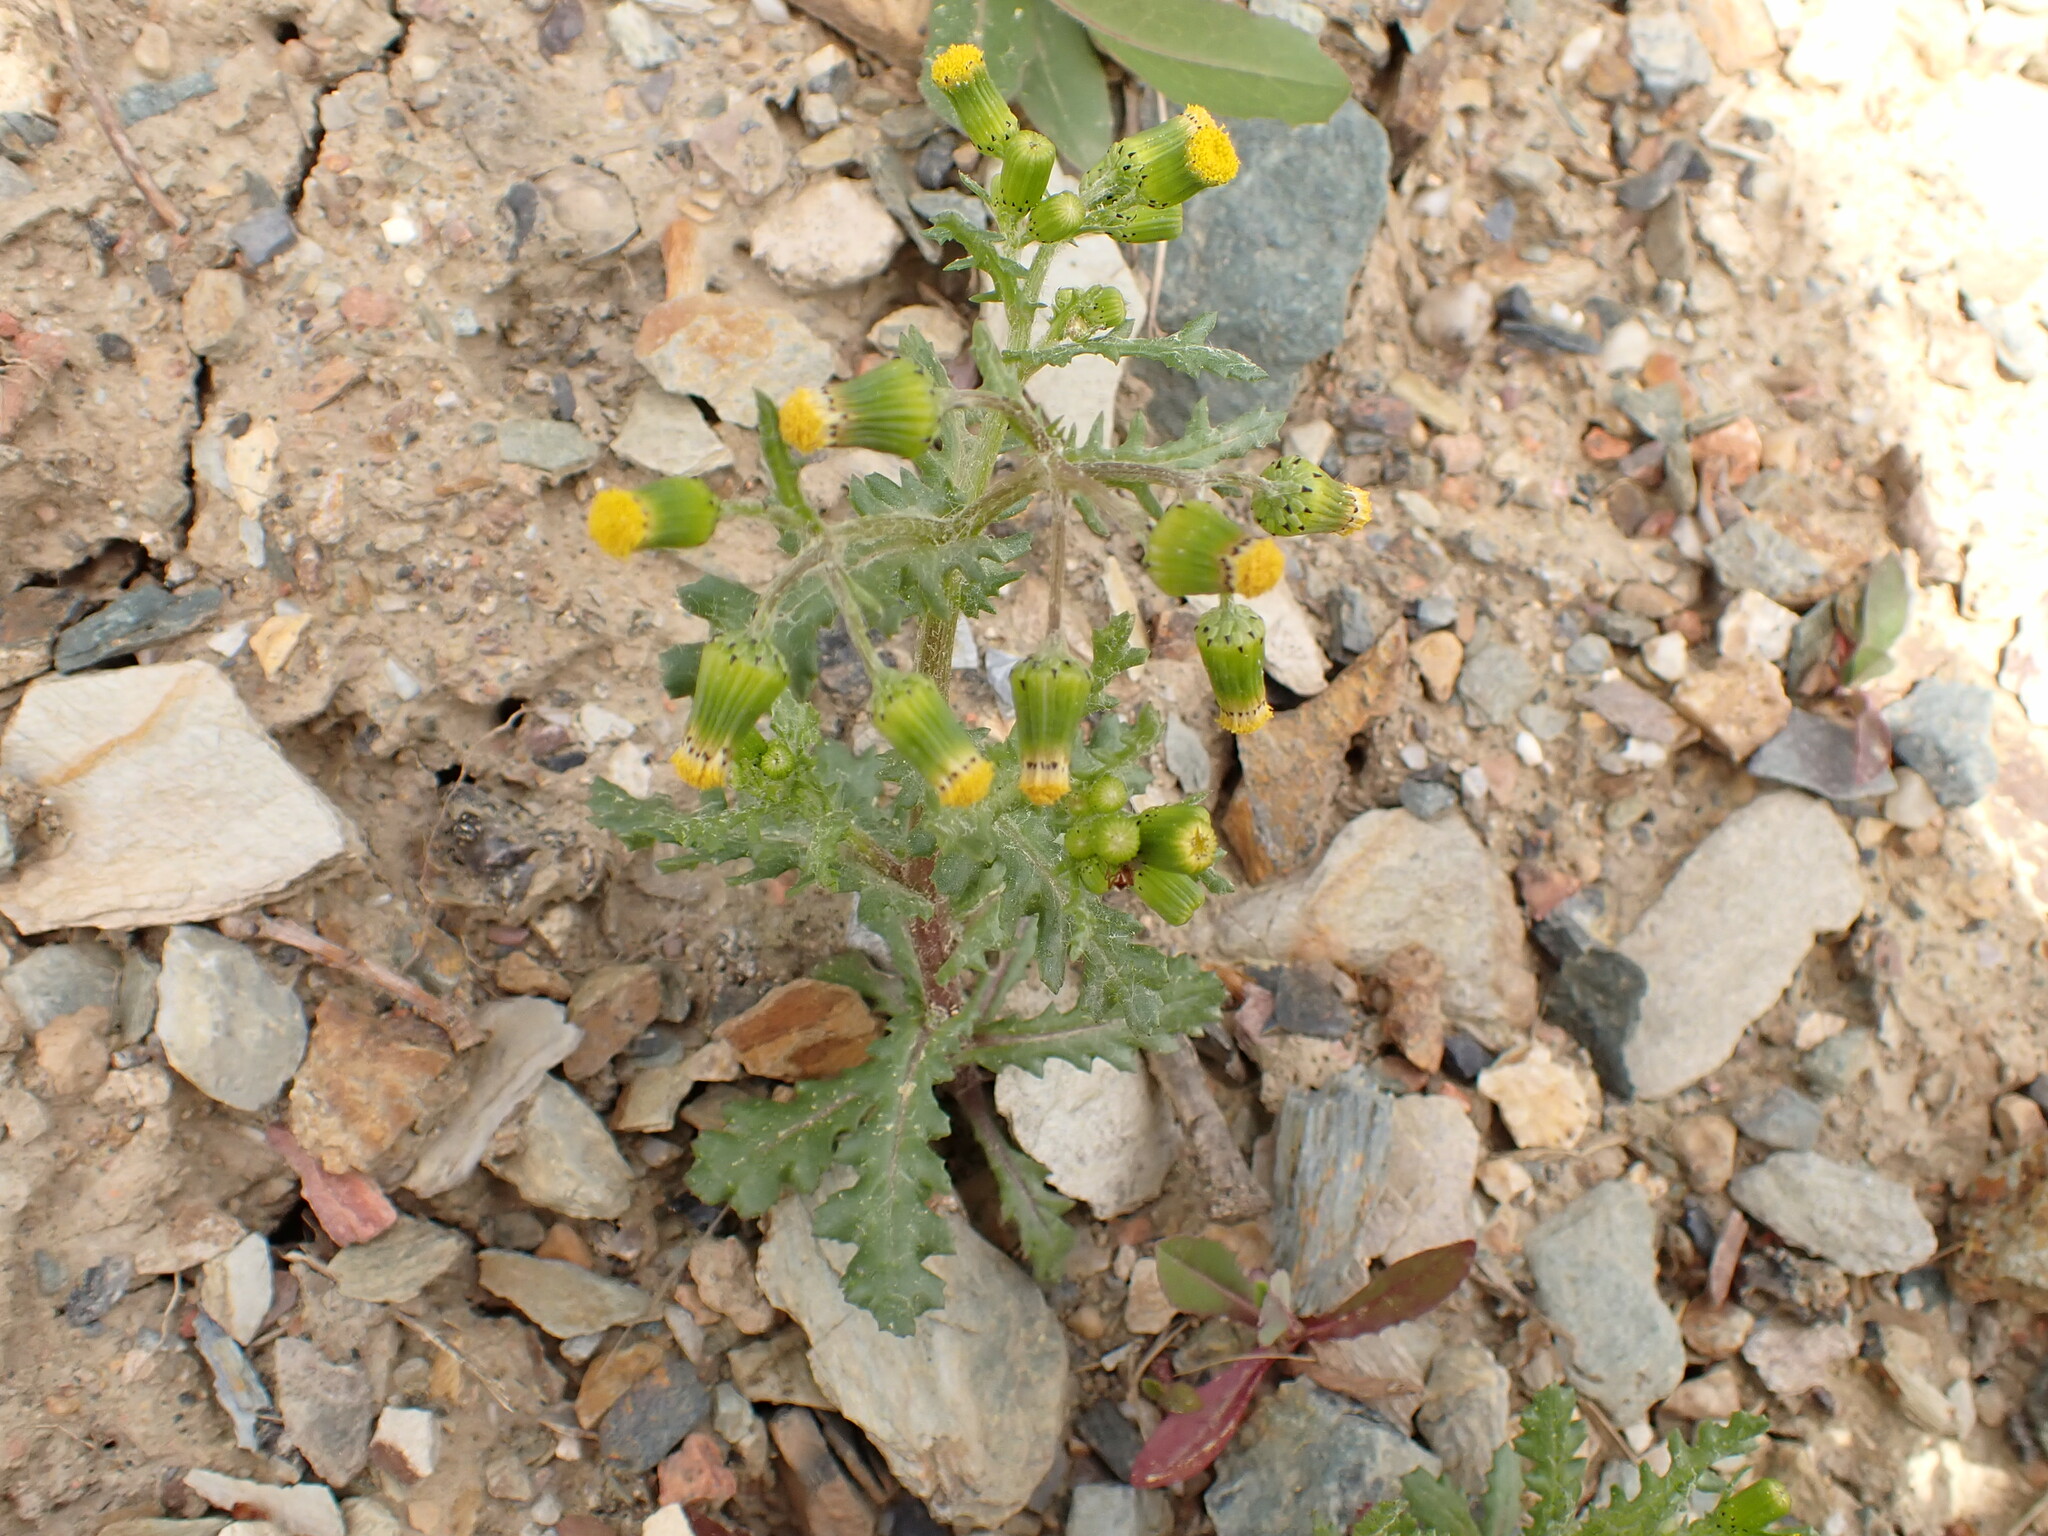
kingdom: Plantae
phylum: Tracheophyta
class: Magnoliopsida
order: Asterales
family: Asteraceae
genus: Senecio
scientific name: Senecio vulgaris
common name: Old-man-in-the-spring
